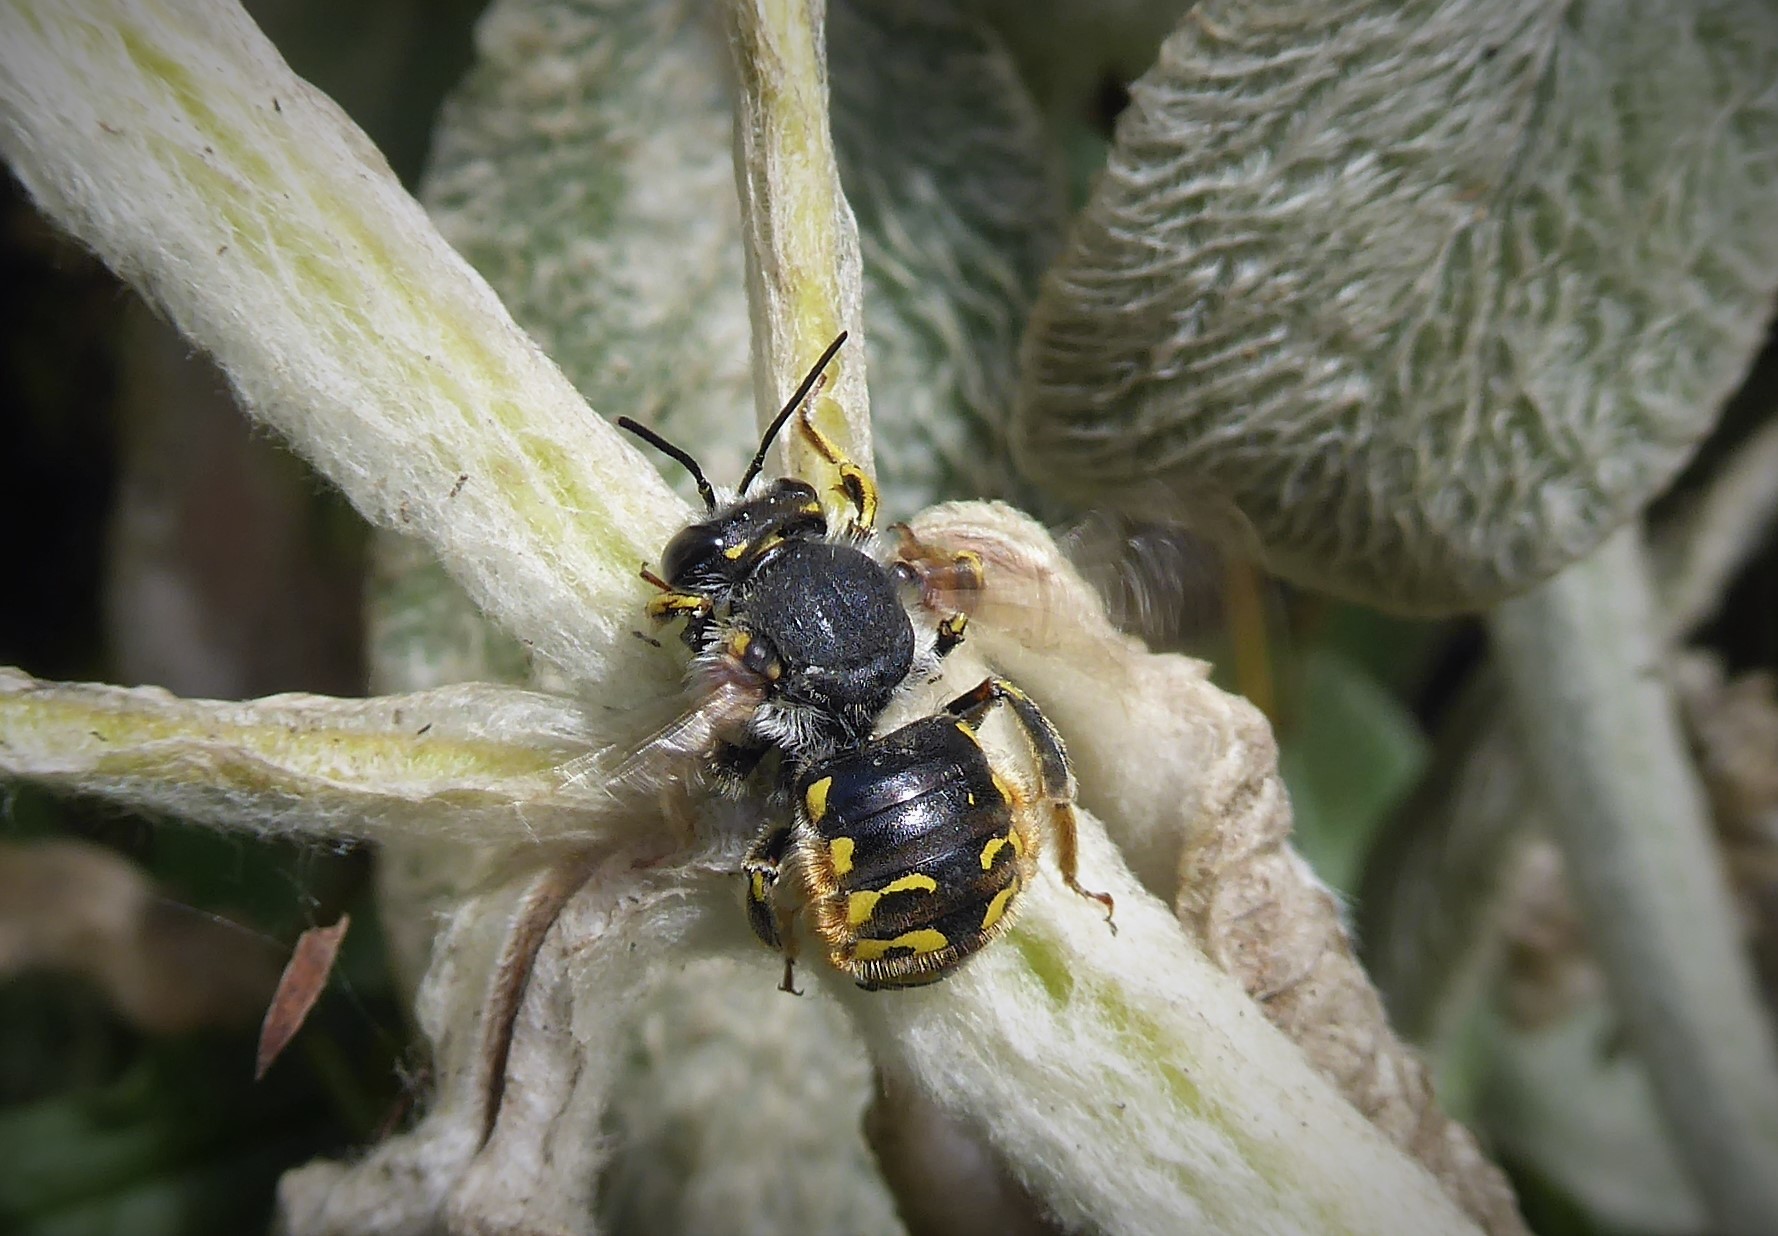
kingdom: Animalia
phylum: Arthropoda
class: Insecta
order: Hymenoptera
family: Megachilidae
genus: Anthidium
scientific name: Anthidium manicatum
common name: Wool carder bee
